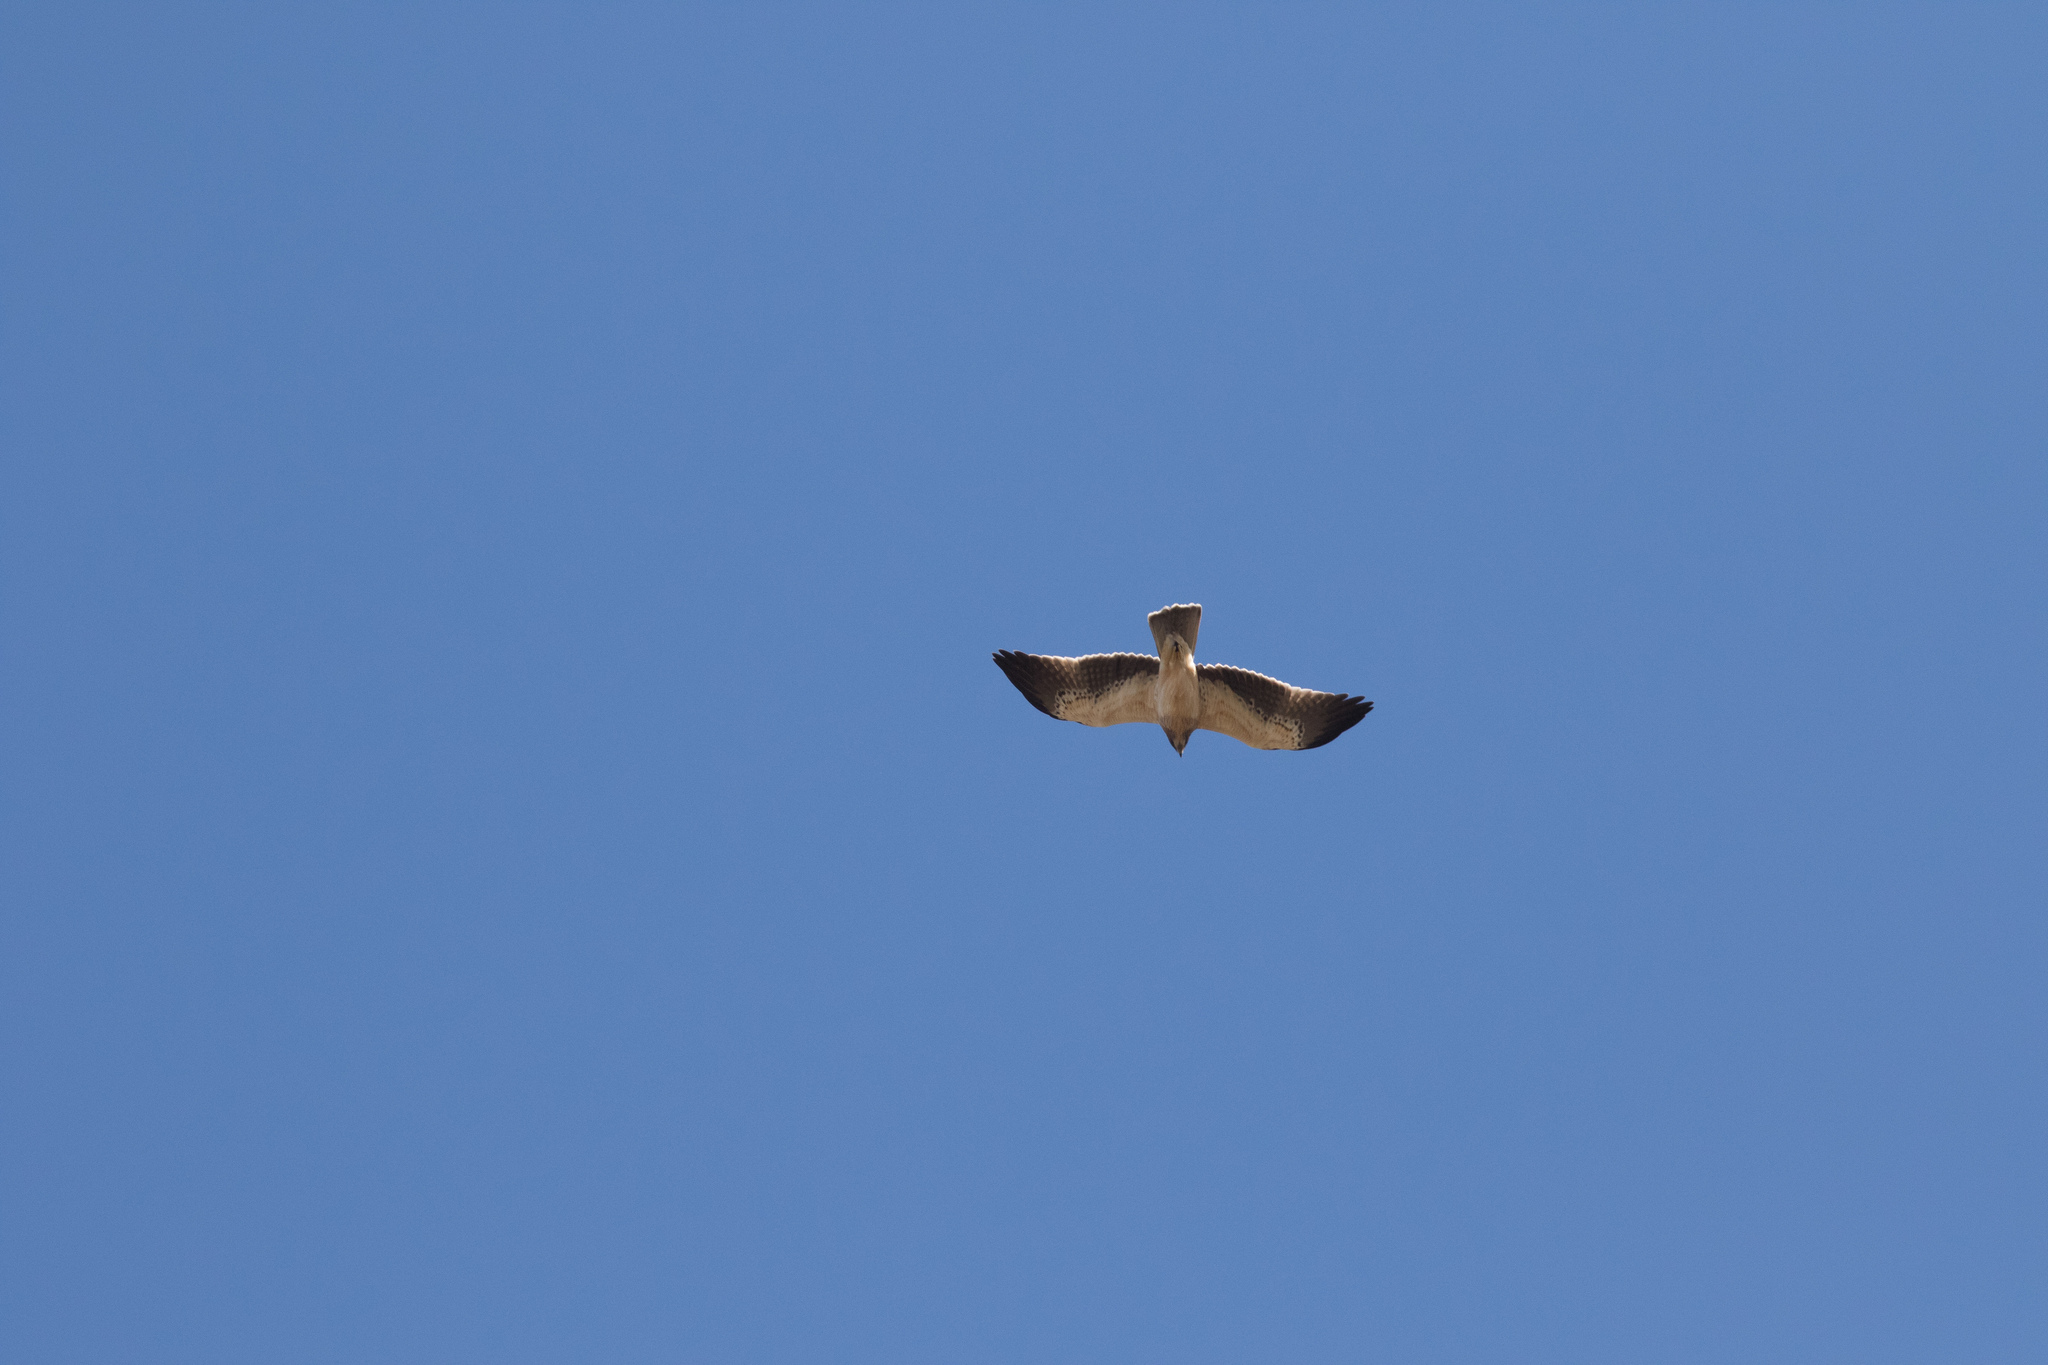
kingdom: Animalia
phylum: Chordata
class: Aves
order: Accipitriformes
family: Accipitridae
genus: Hieraaetus
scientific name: Hieraaetus pennatus
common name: Booted eagle
